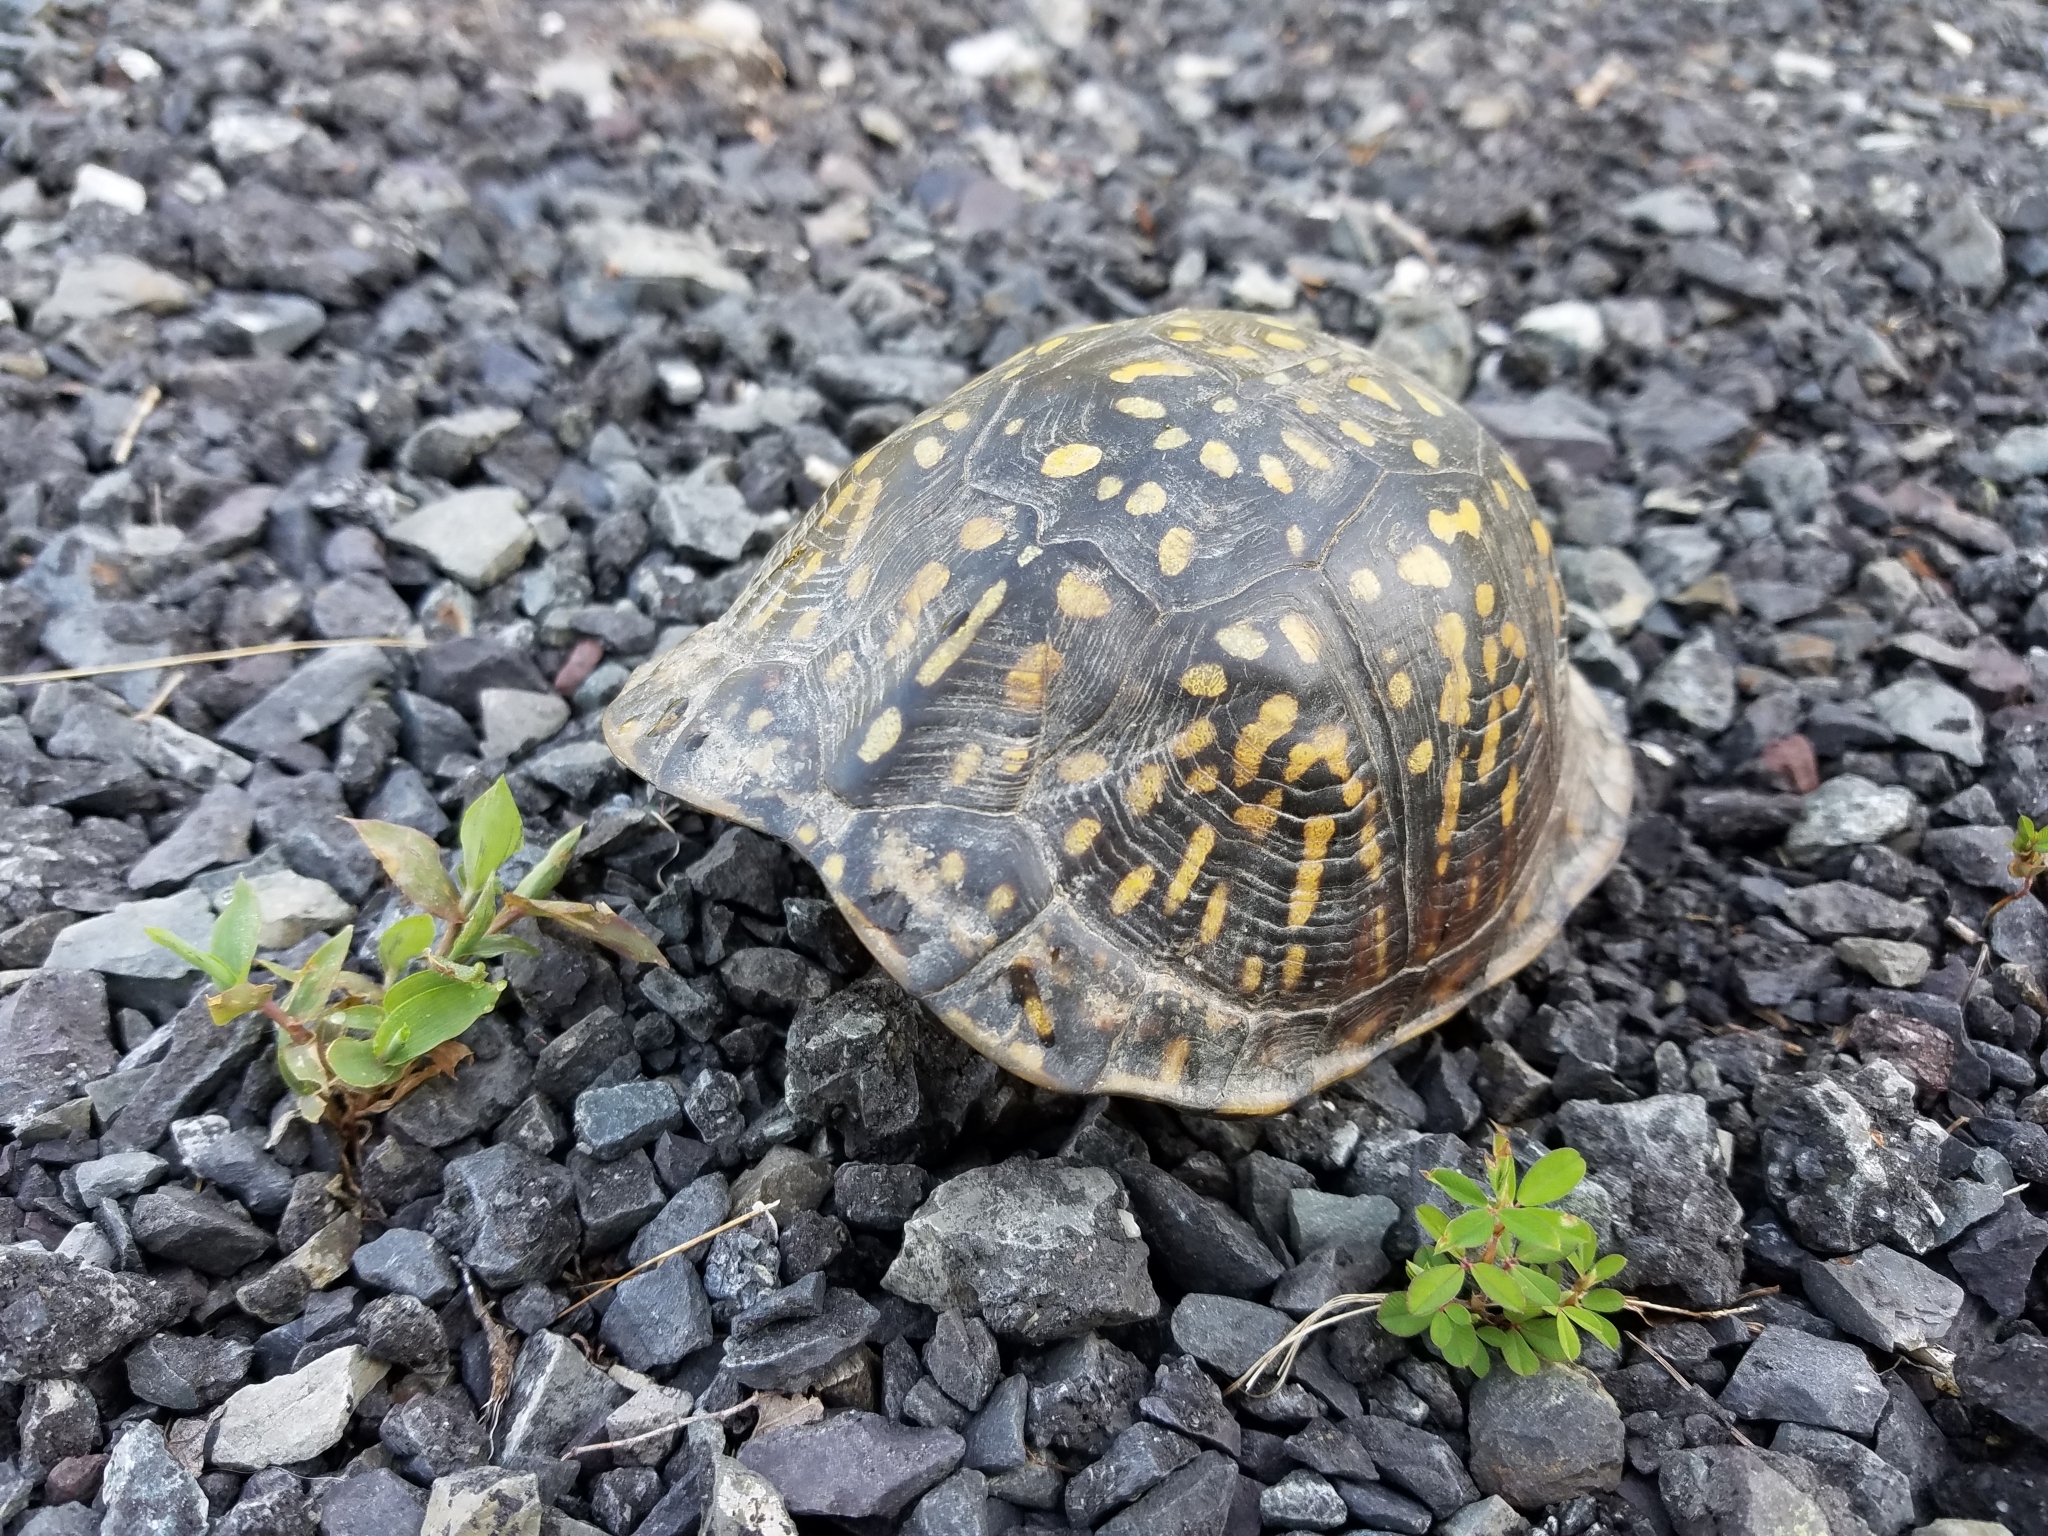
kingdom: Animalia
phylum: Chordata
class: Testudines
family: Emydidae
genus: Terrapene
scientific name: Terrapene carolina
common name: Common box turtle
